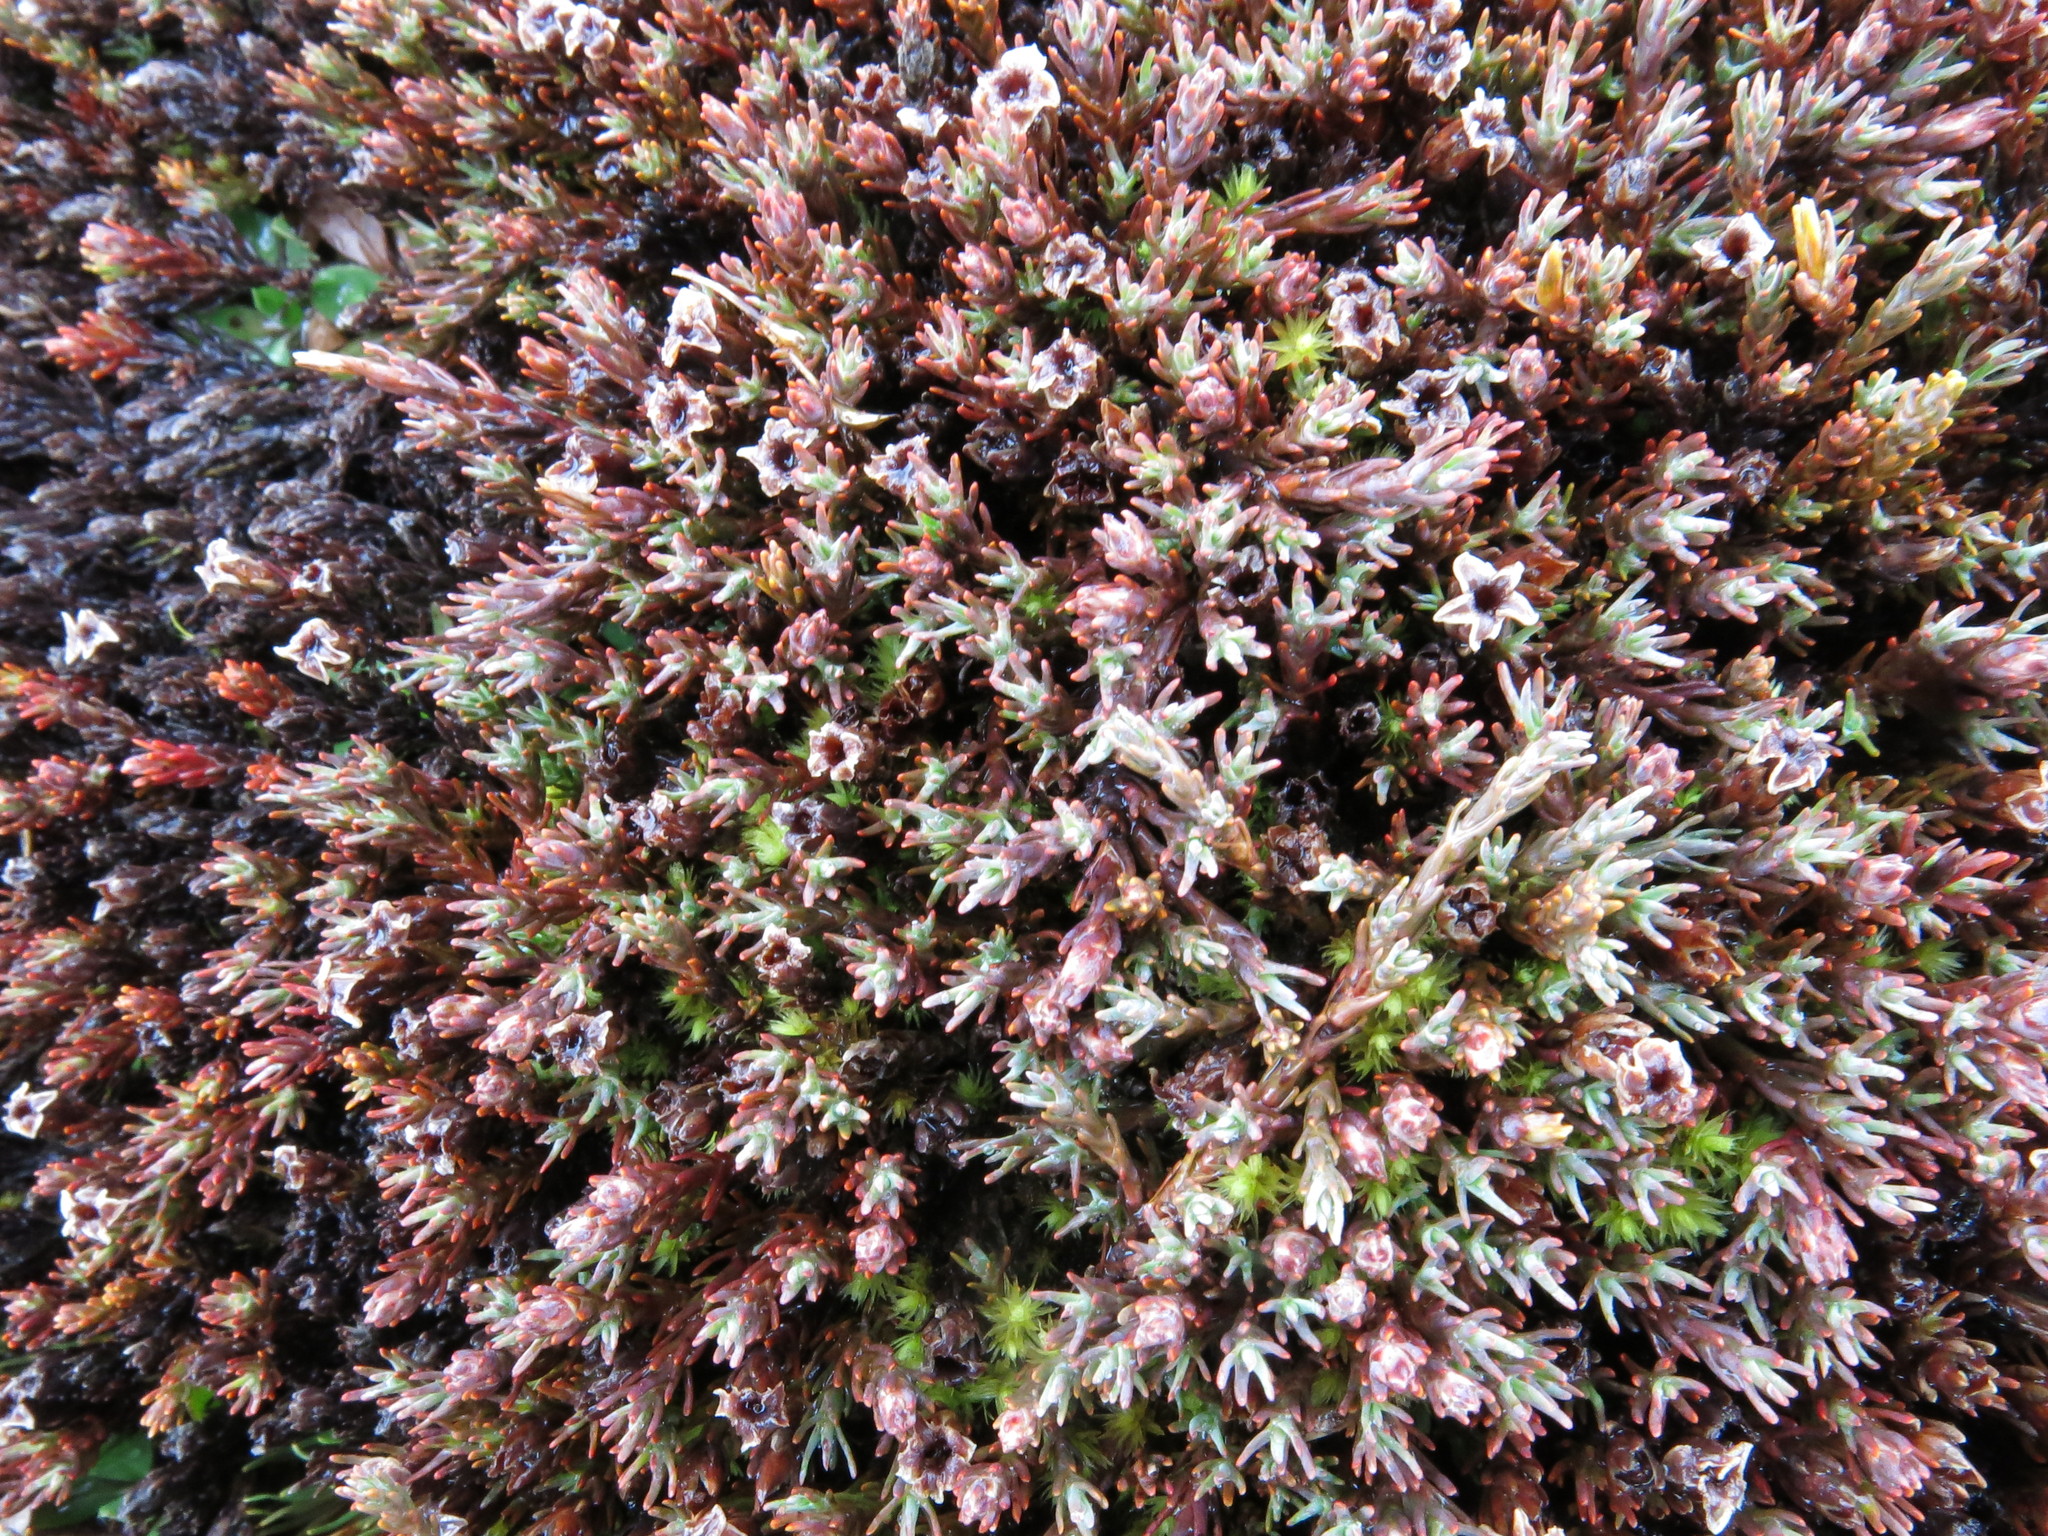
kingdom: Plantae
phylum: Tracheophyta
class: Magnoliopsida
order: Ericales
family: Ericaceae
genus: Dracophyllum
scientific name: Dracophyllum prostratum
